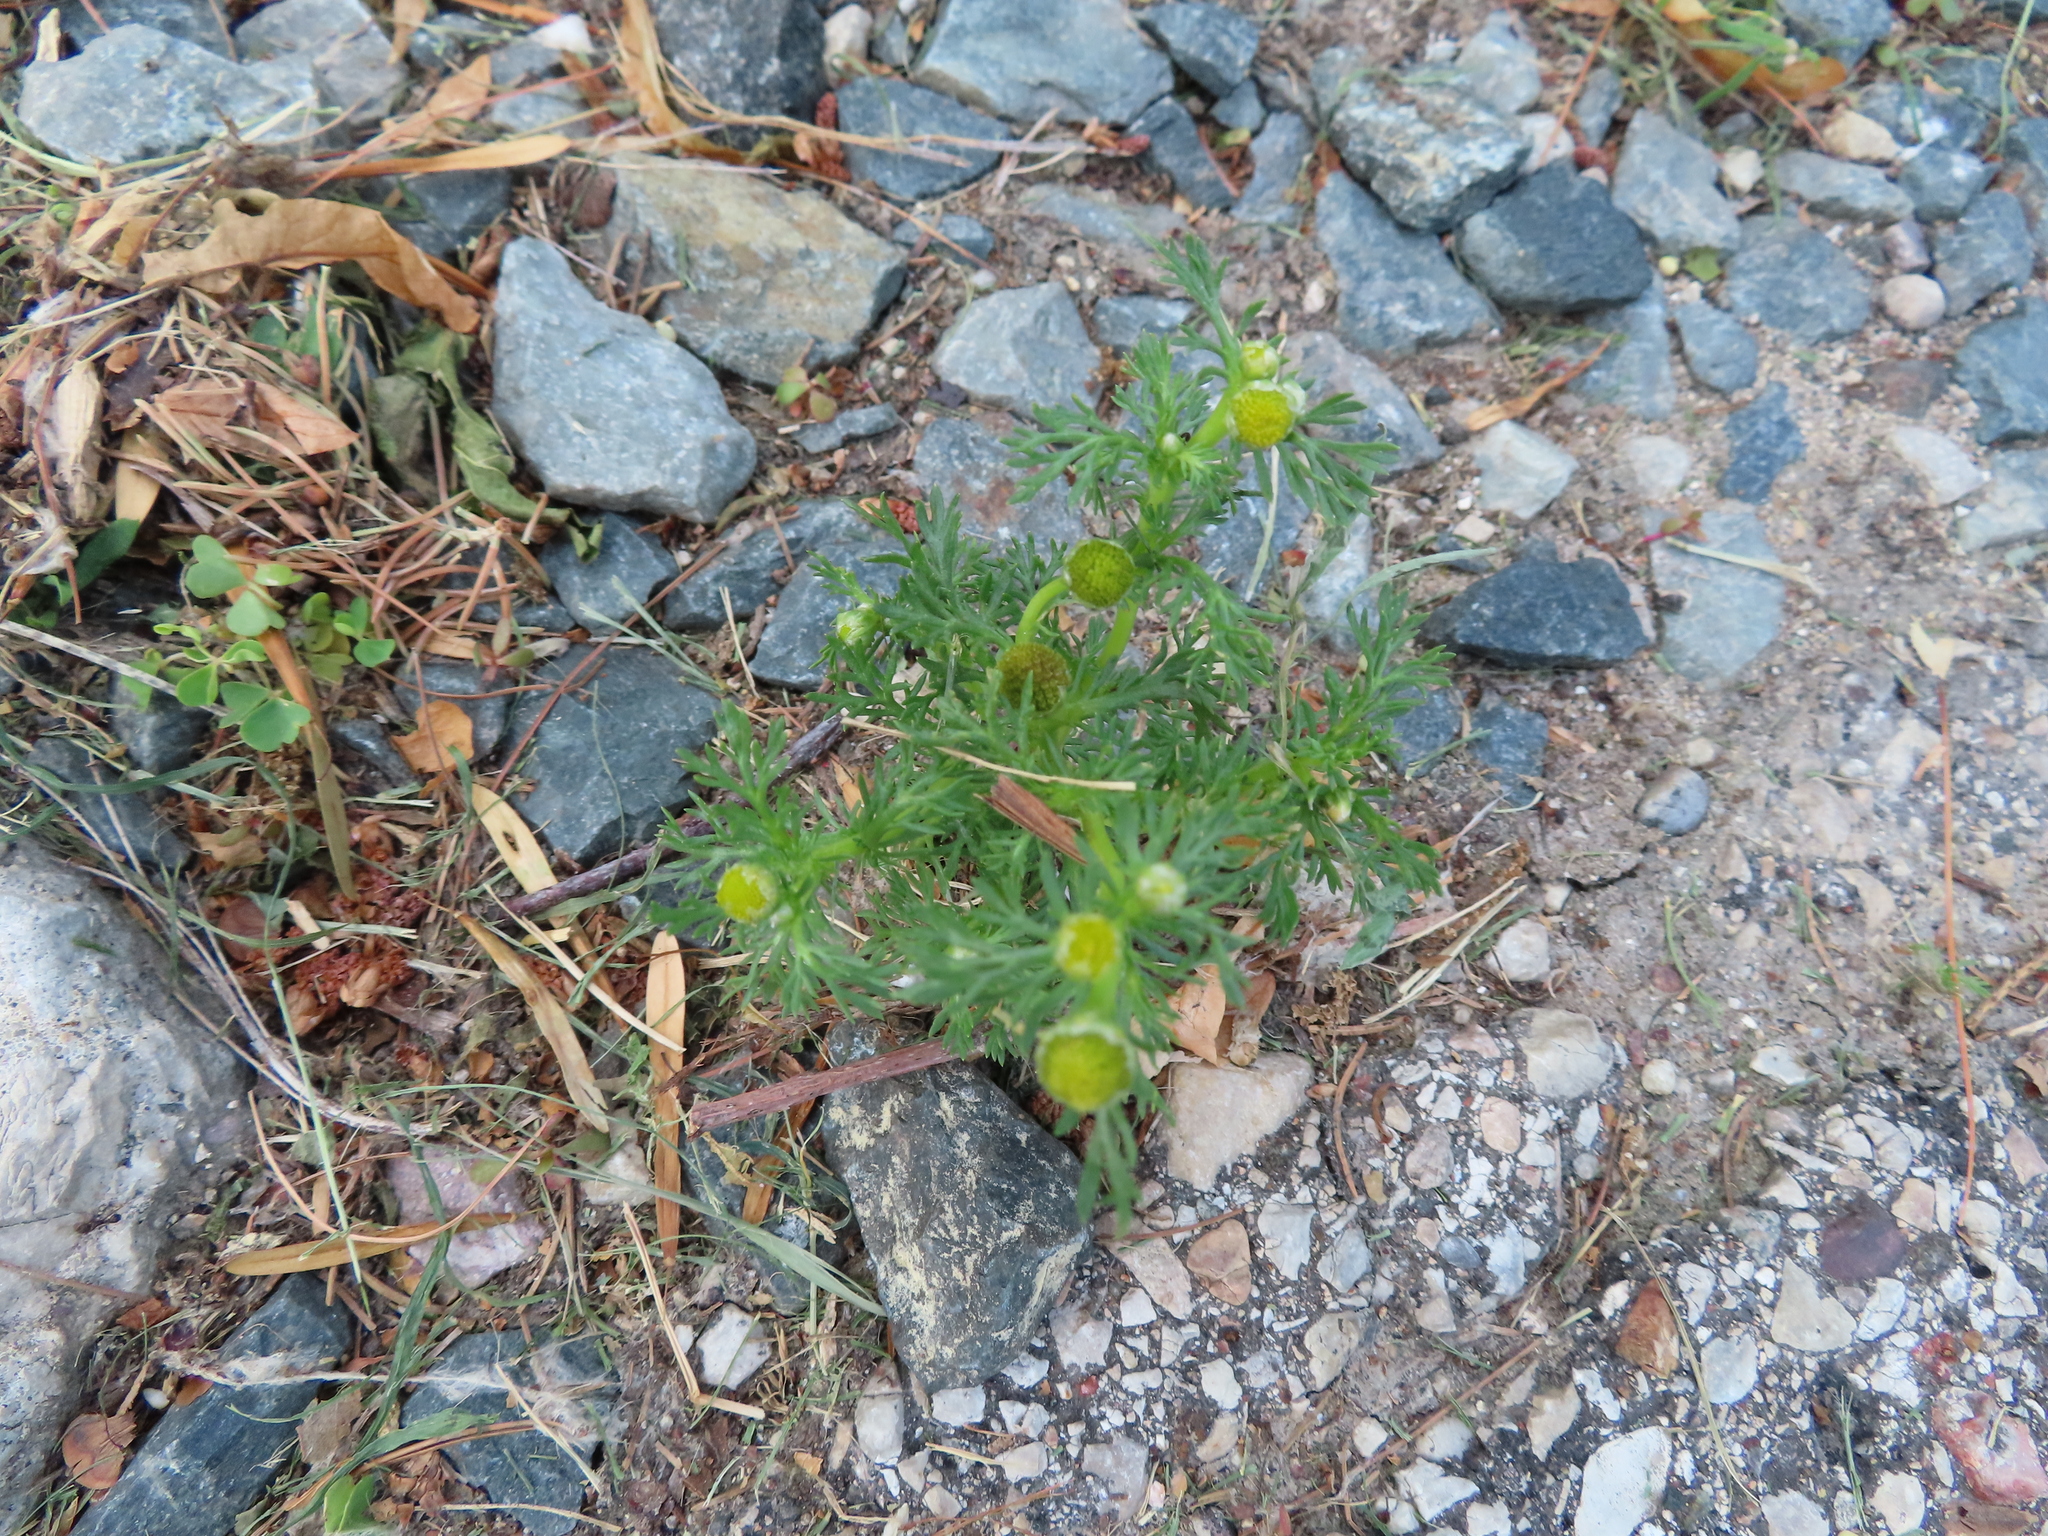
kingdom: Plantae
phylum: Tracheophyta
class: Magnoliopsida
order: Asterales
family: Asteraceae
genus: Matricaria
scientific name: Matricaria discoidea
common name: Disc mayweed
